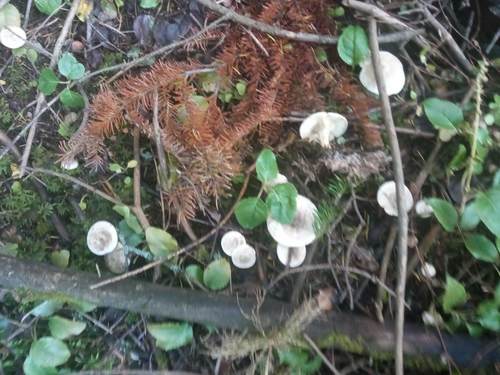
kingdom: Fungi
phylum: Basidiomycota
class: Agaricomycetes
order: Agaricales
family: Tricholomataceae
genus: Clitocybe
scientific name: Clitocybe
